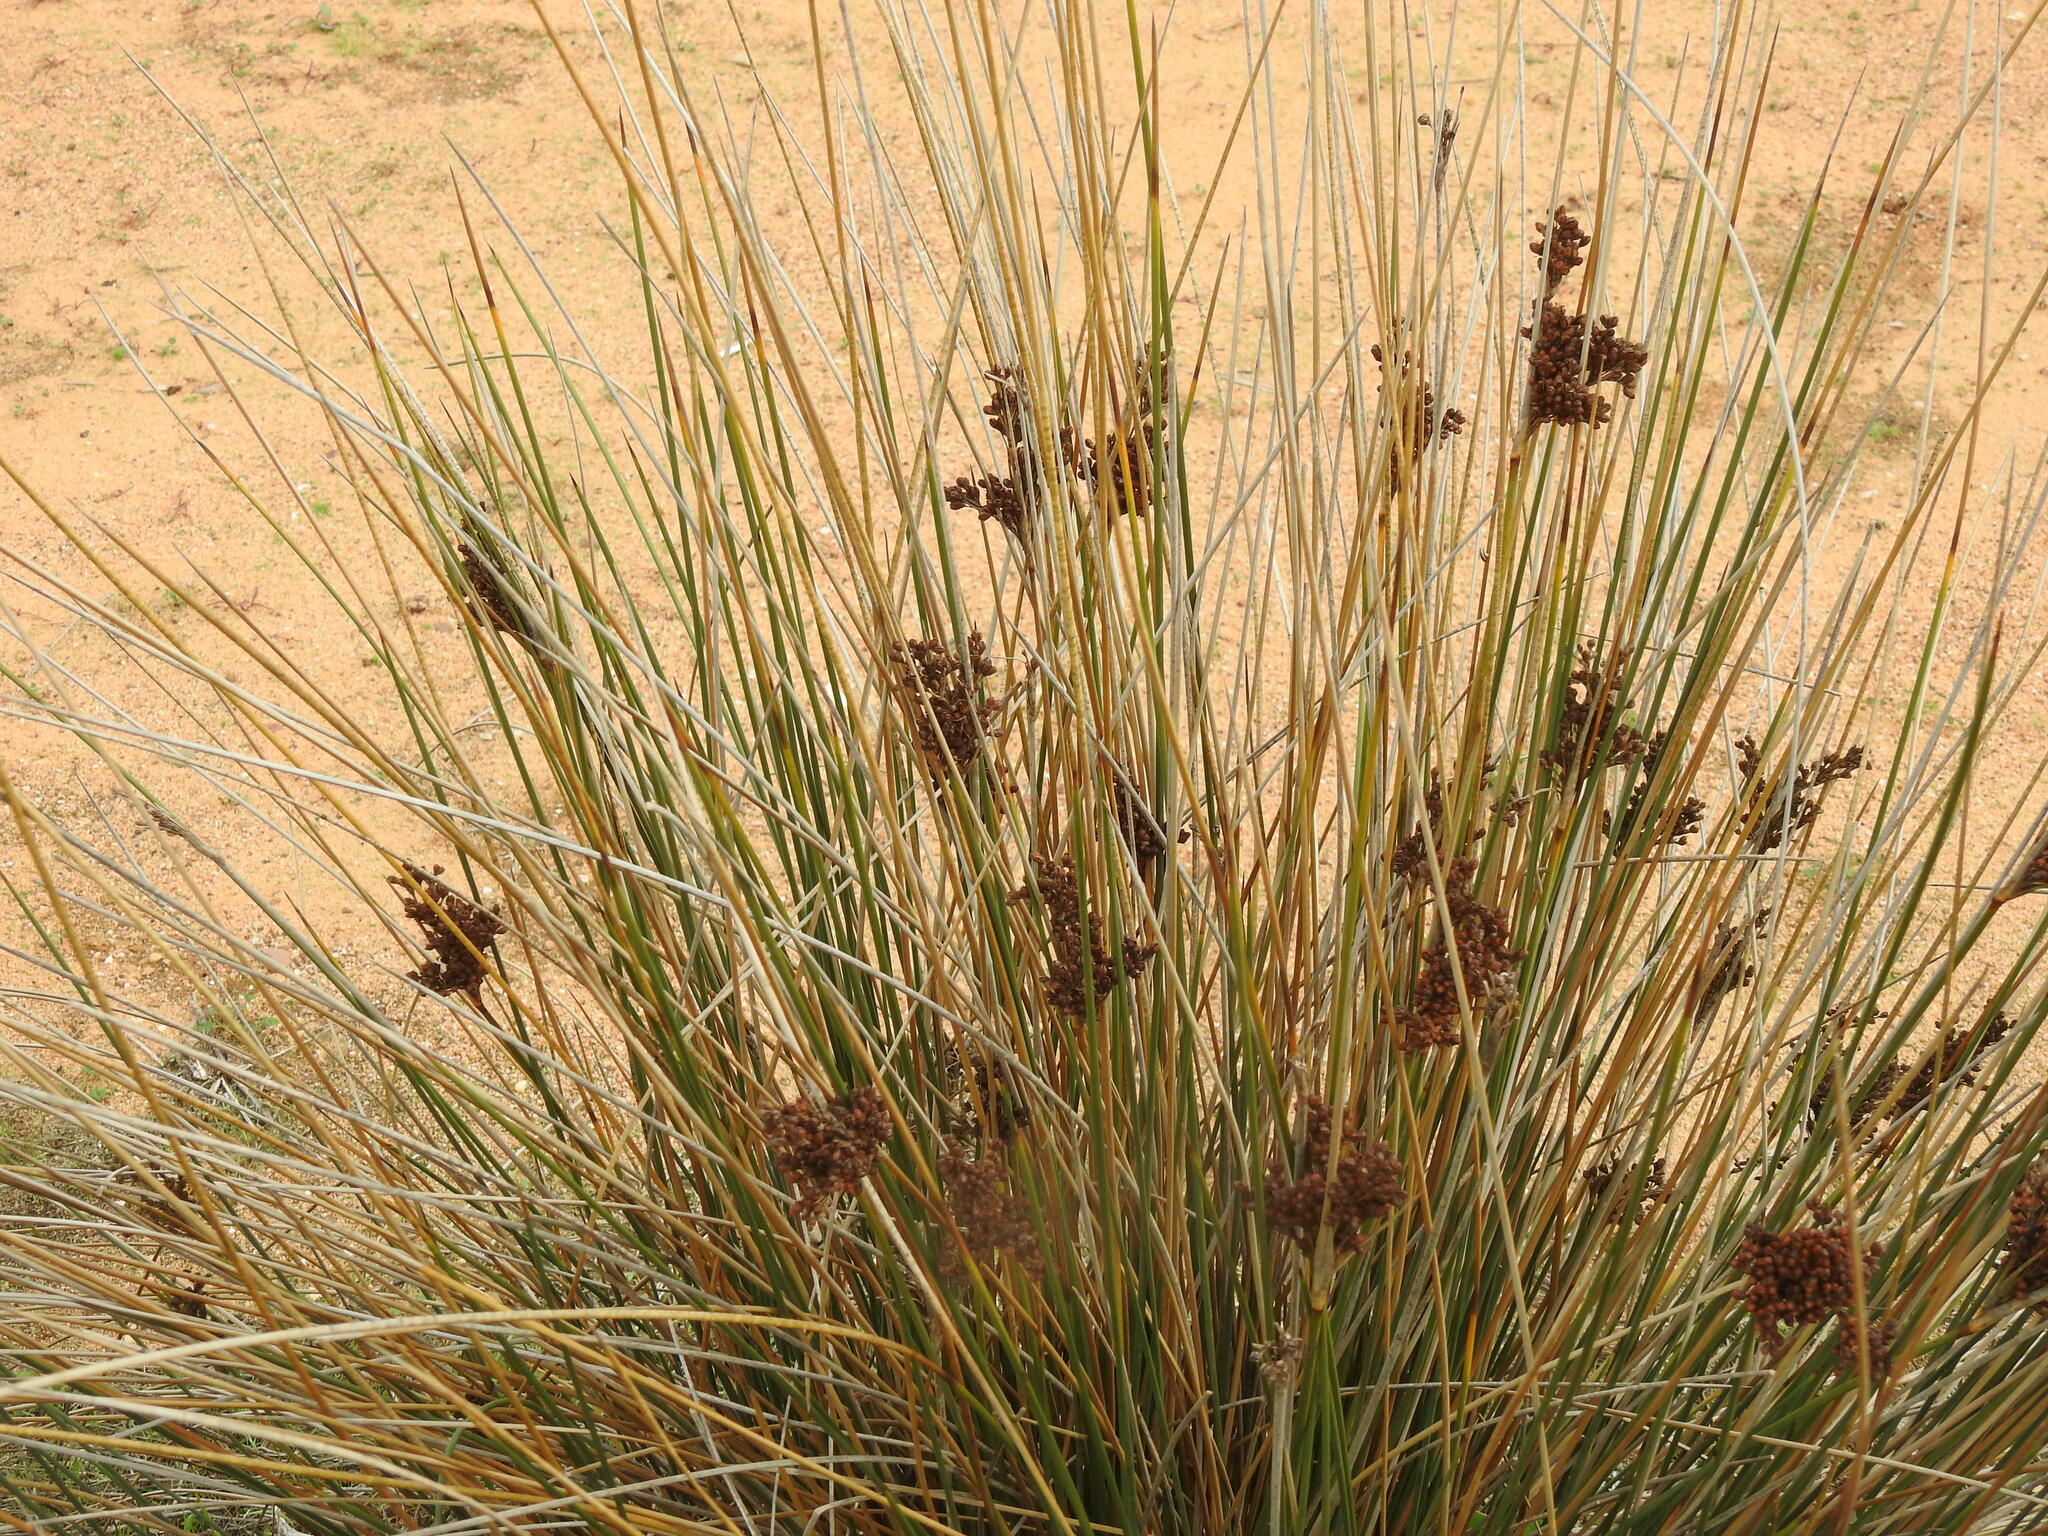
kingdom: Plantae
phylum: Tracheophyta
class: Liliopsida
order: Poales
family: Juncaceae
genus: Juncus
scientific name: Juncus acutus
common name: Sharp rush
